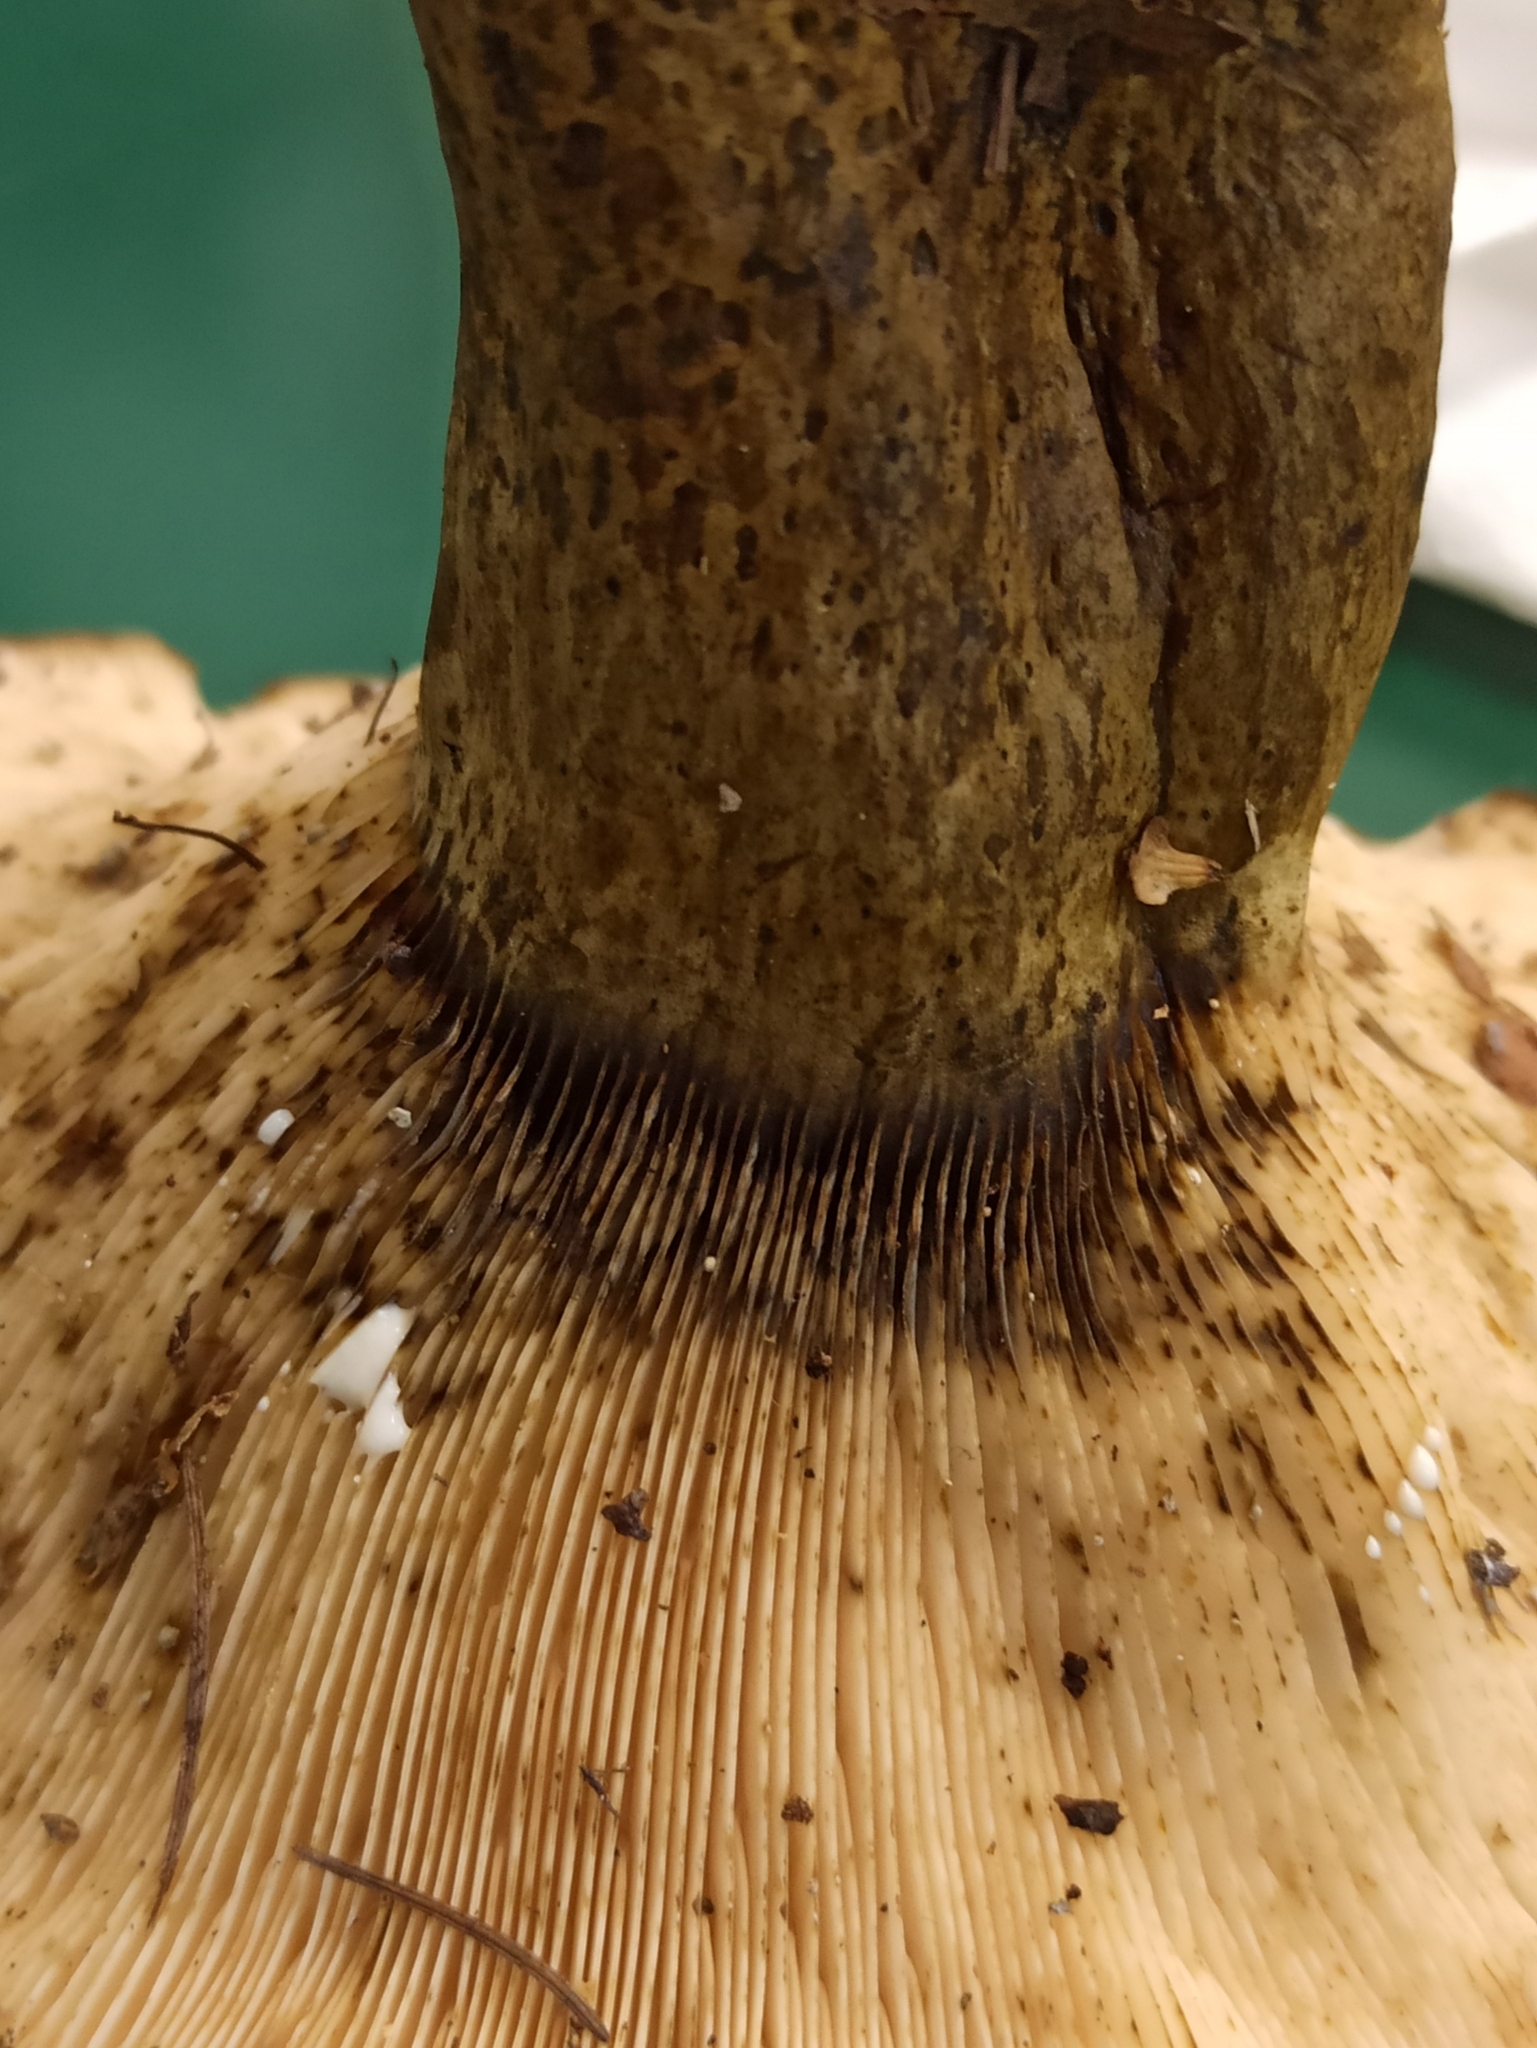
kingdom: Fungi
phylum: Basidiomycota
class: Agaricomycetes
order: Russulales
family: Russulaceae
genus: Lactarius
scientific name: Lactarius turpis
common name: Ugly milk-cap
